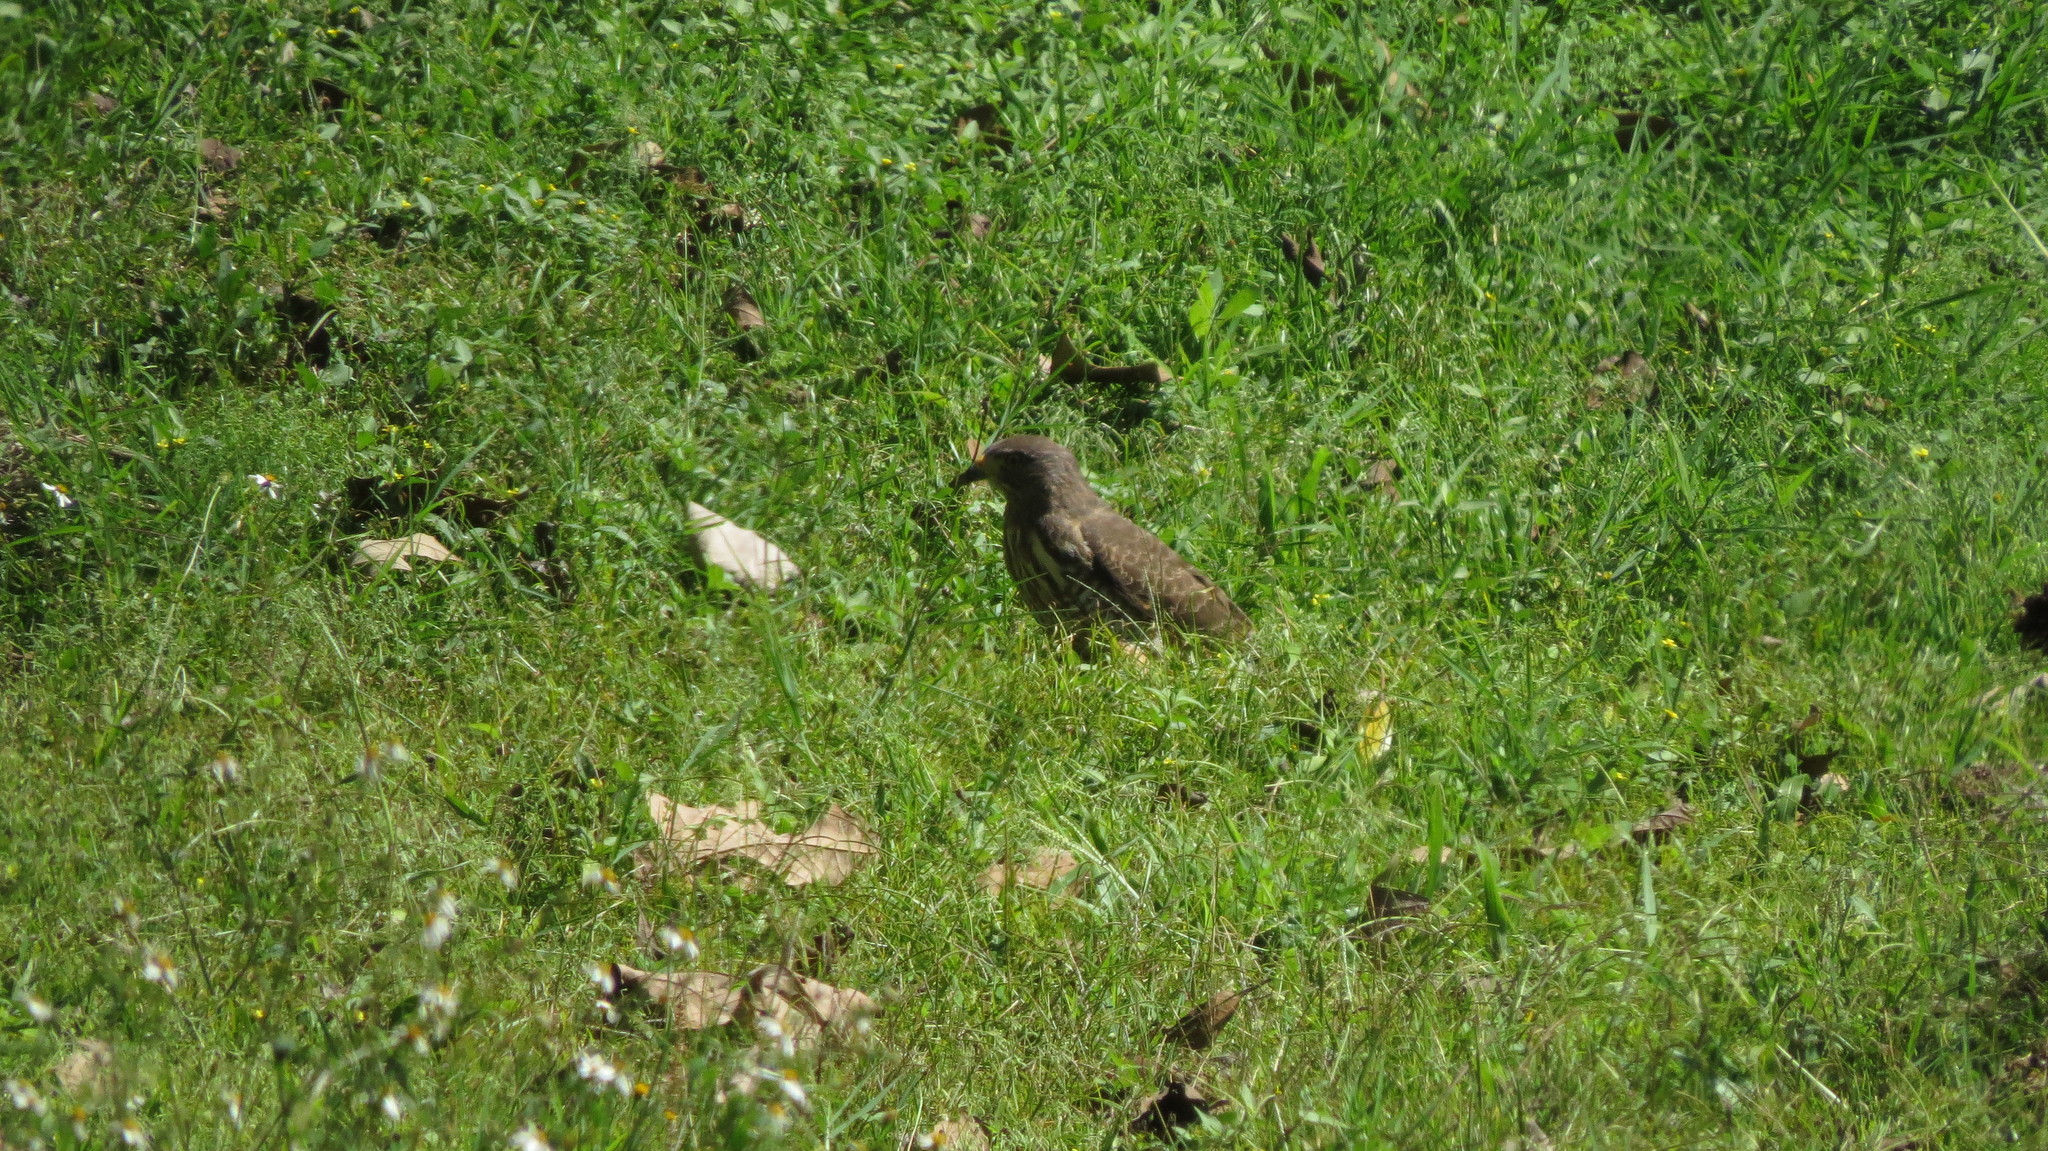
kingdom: Animalia
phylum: Chordata
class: Aves
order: Accipitriformes
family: Accipitridae
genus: Rupornis
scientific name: Rupornis magnirostris
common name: Roadside hawk
